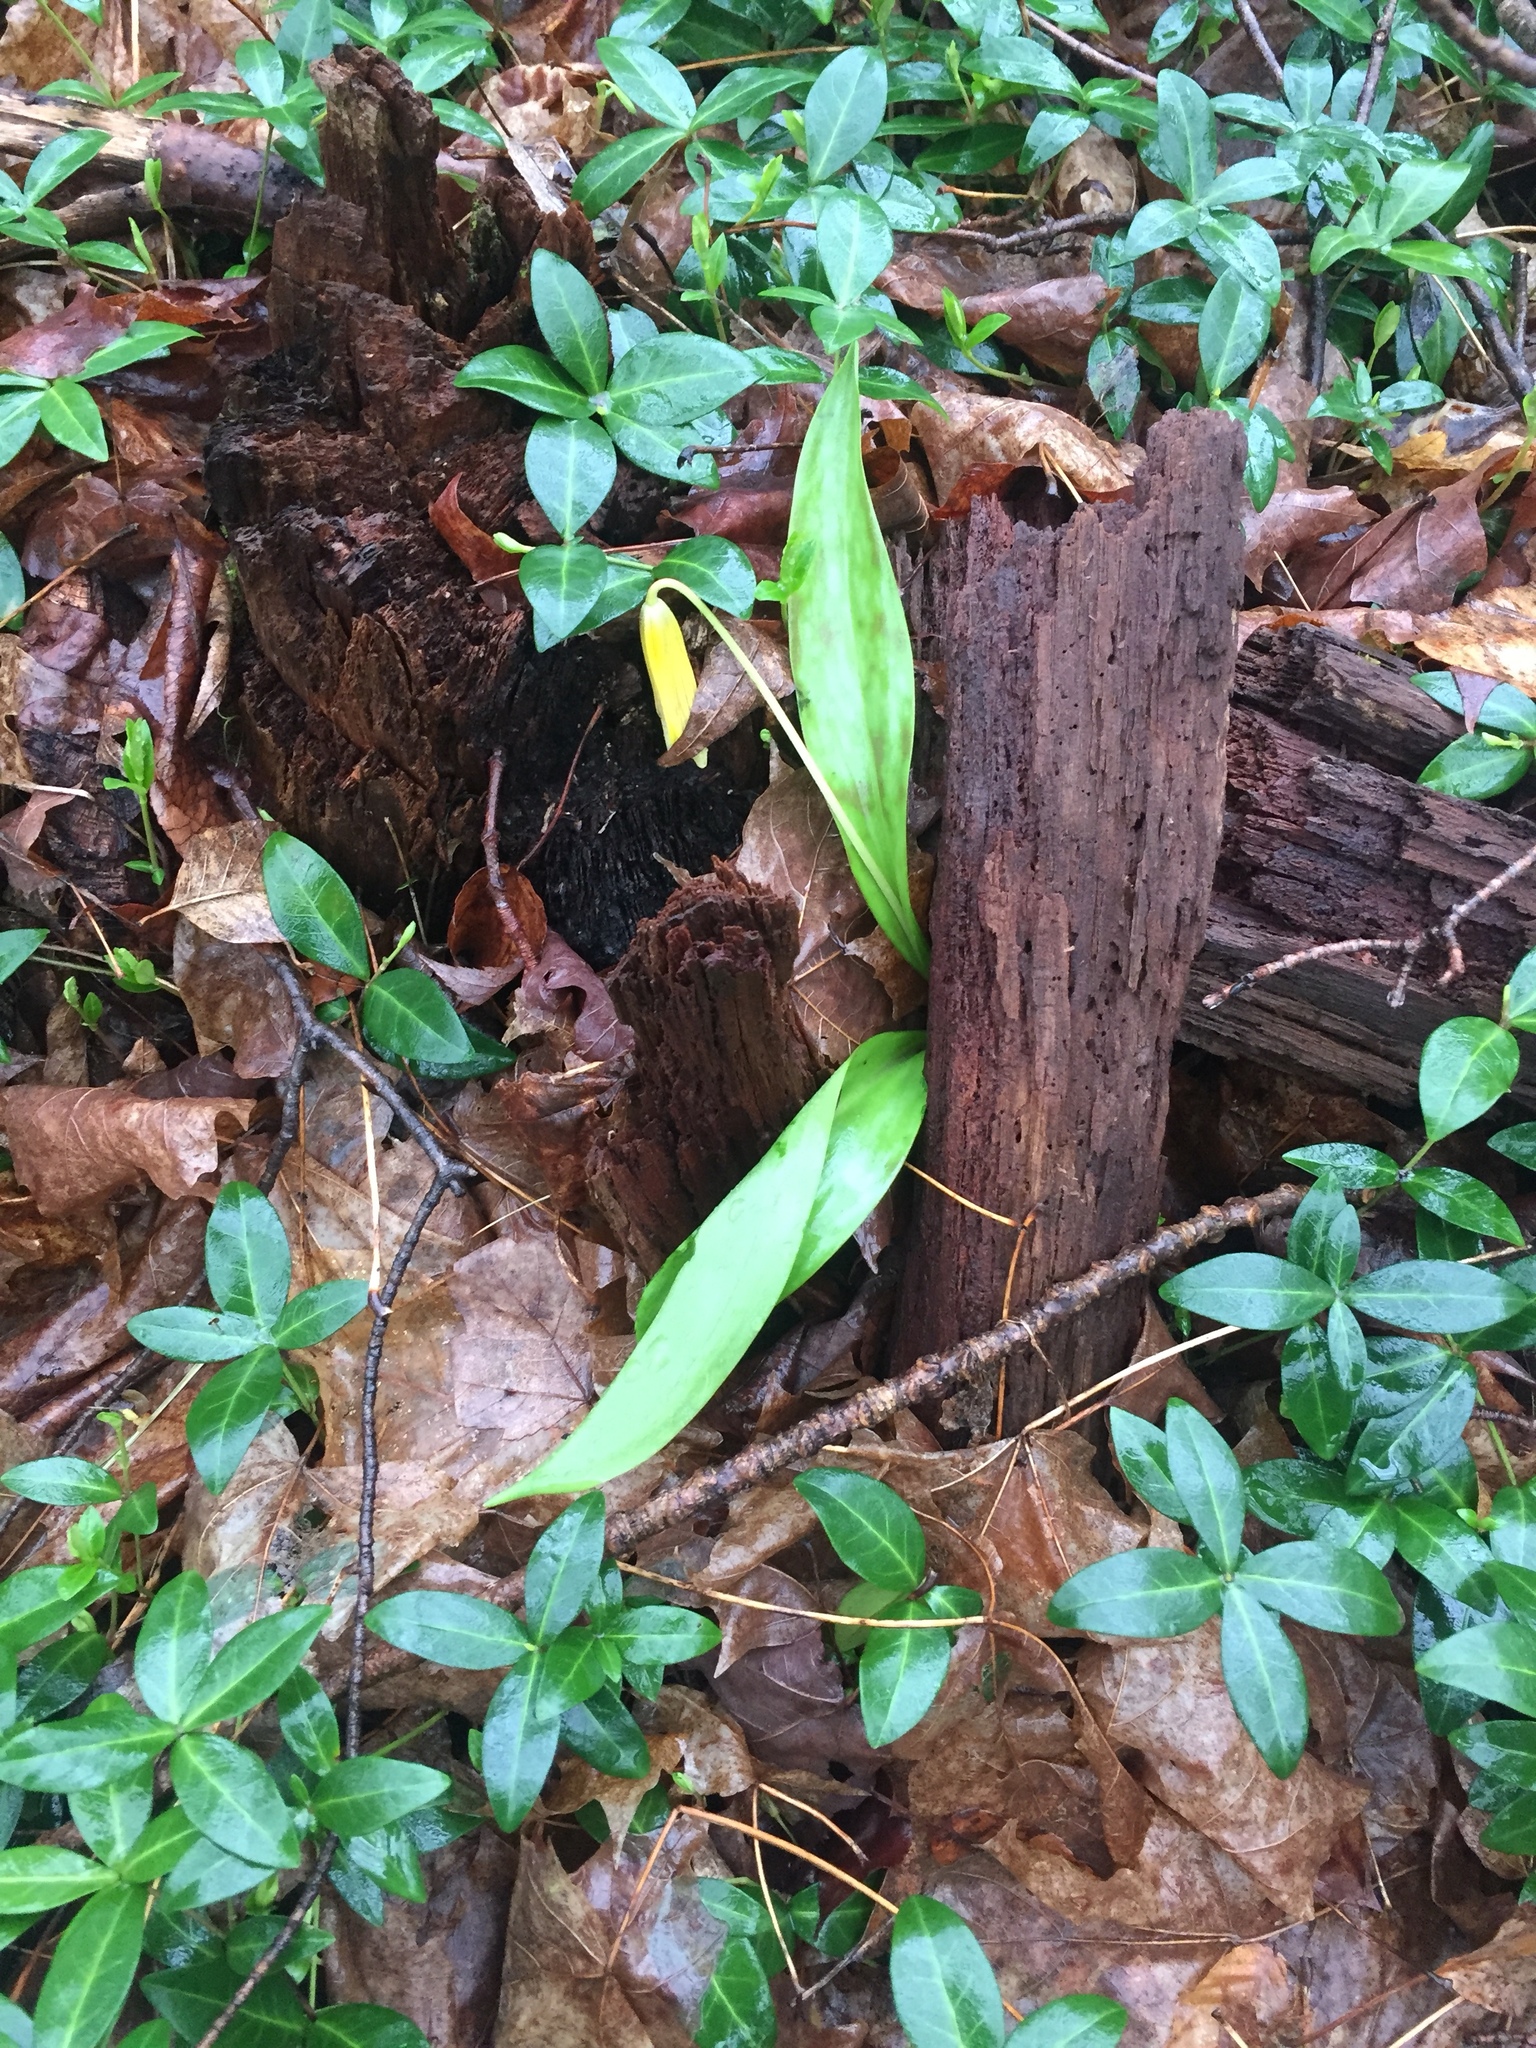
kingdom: Plantae
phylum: Tracheophyta
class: Liliopsida
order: Liliales
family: Liliaceae
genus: Erythronium
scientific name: Erythronium americanum
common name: Yellow adder's-tongue
